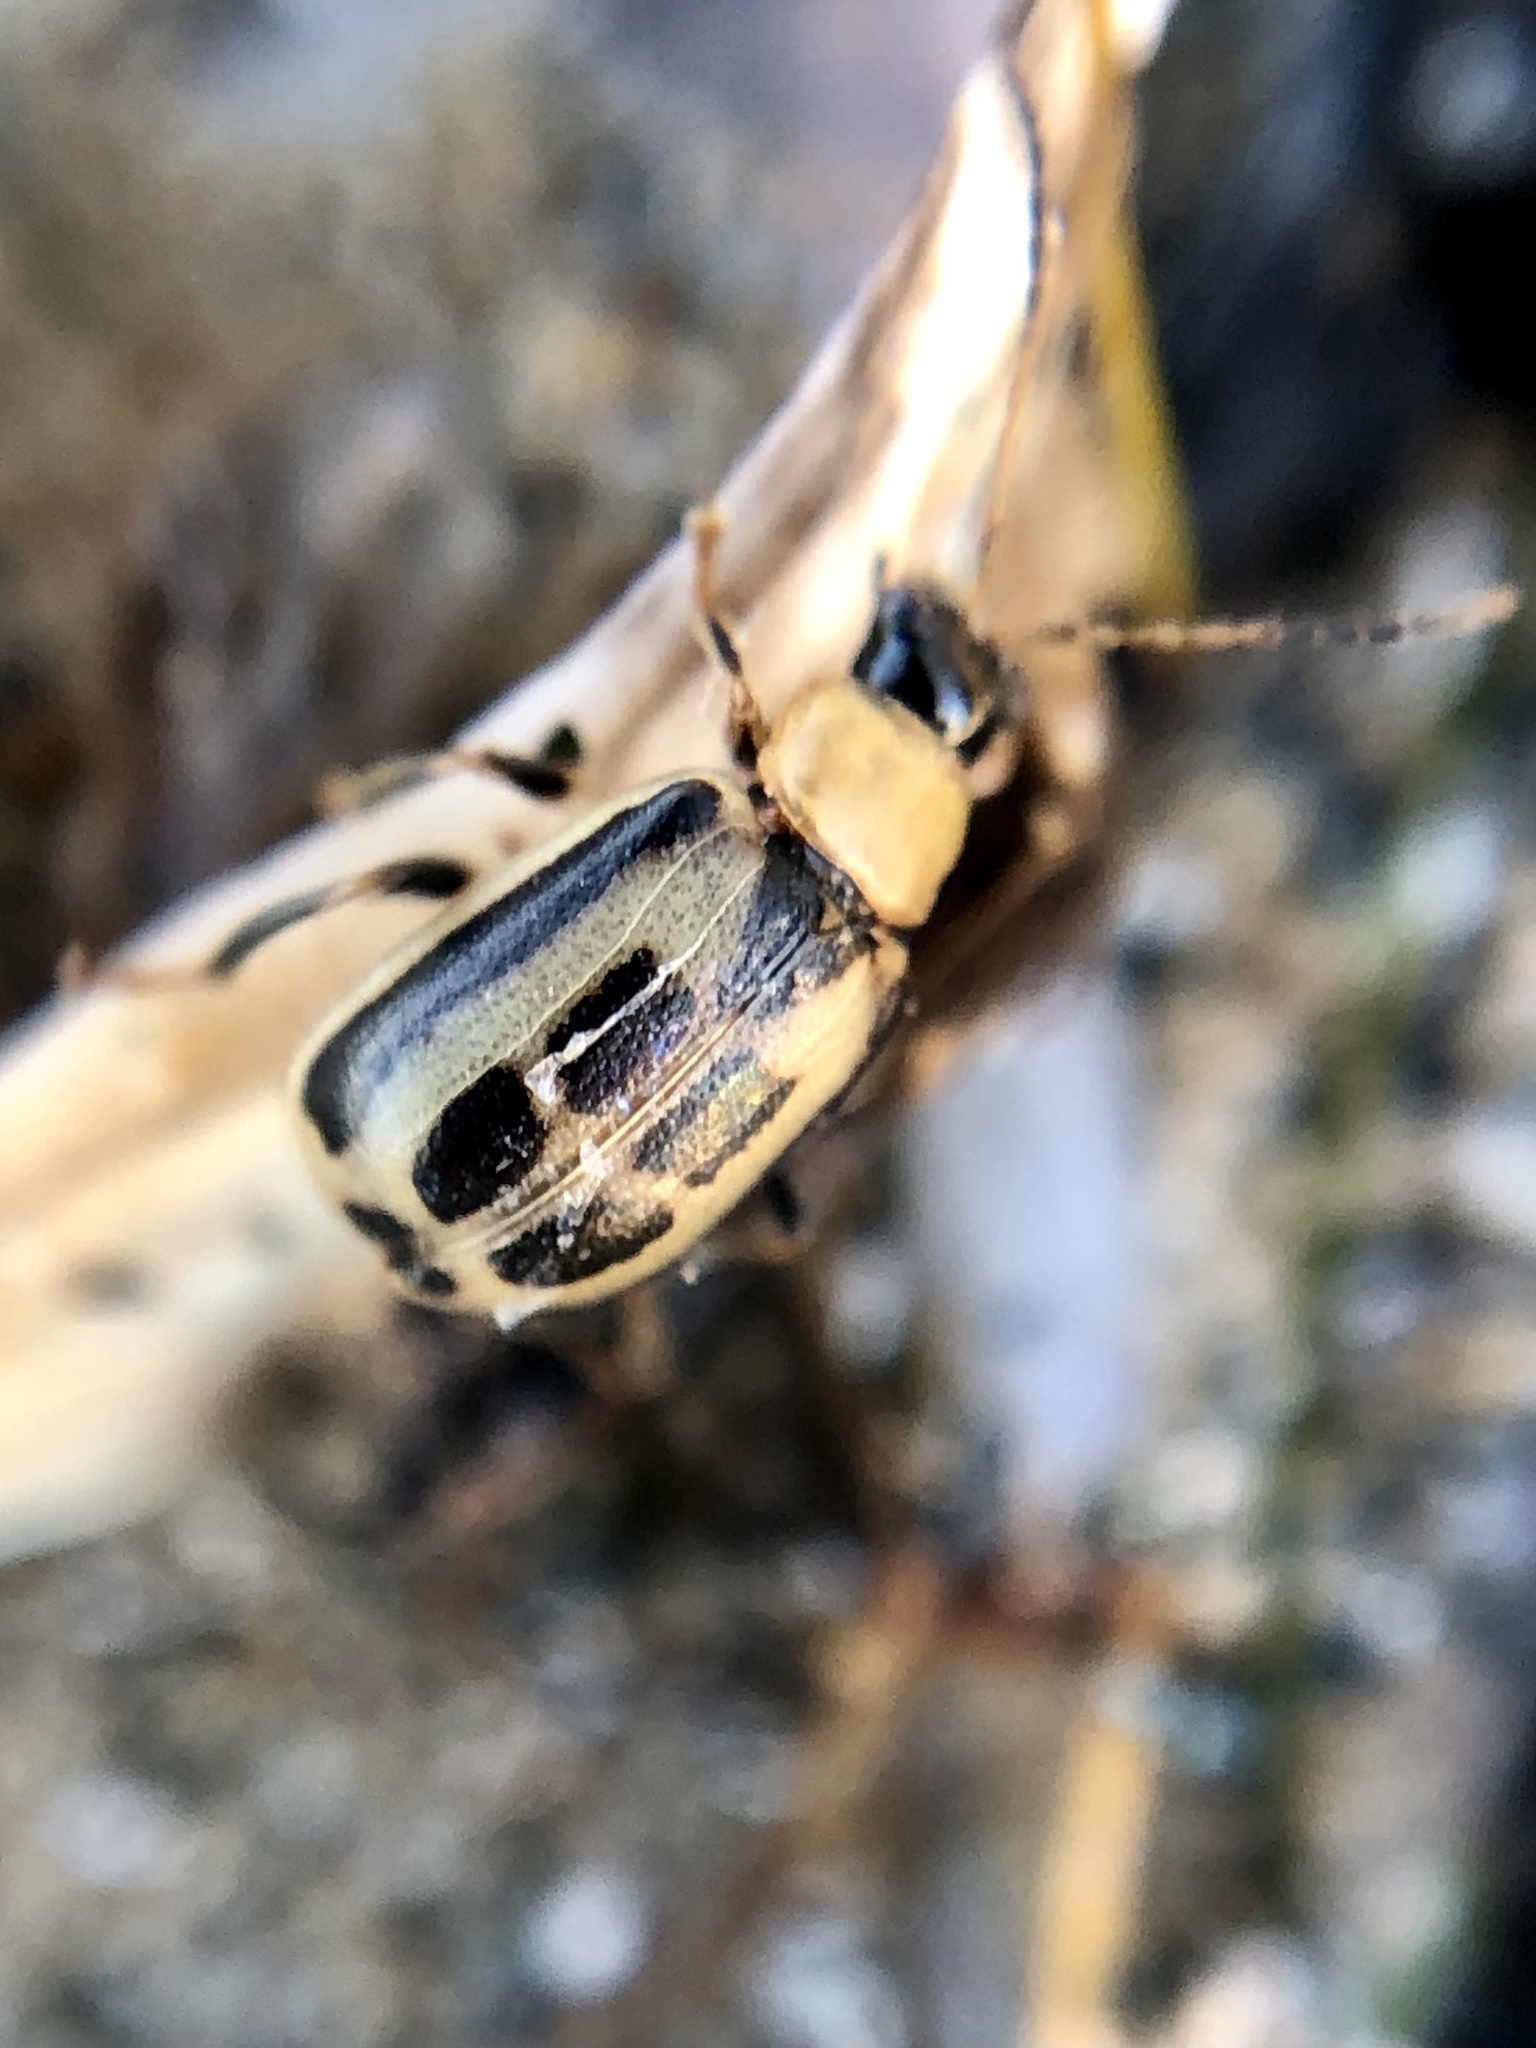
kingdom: Animalia
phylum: Arthropoda
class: Insecta
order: Coleoptera
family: Chrysomelidae
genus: Cerotoma
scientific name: Cerotoma trifurcata
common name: Bean leaf beetle
